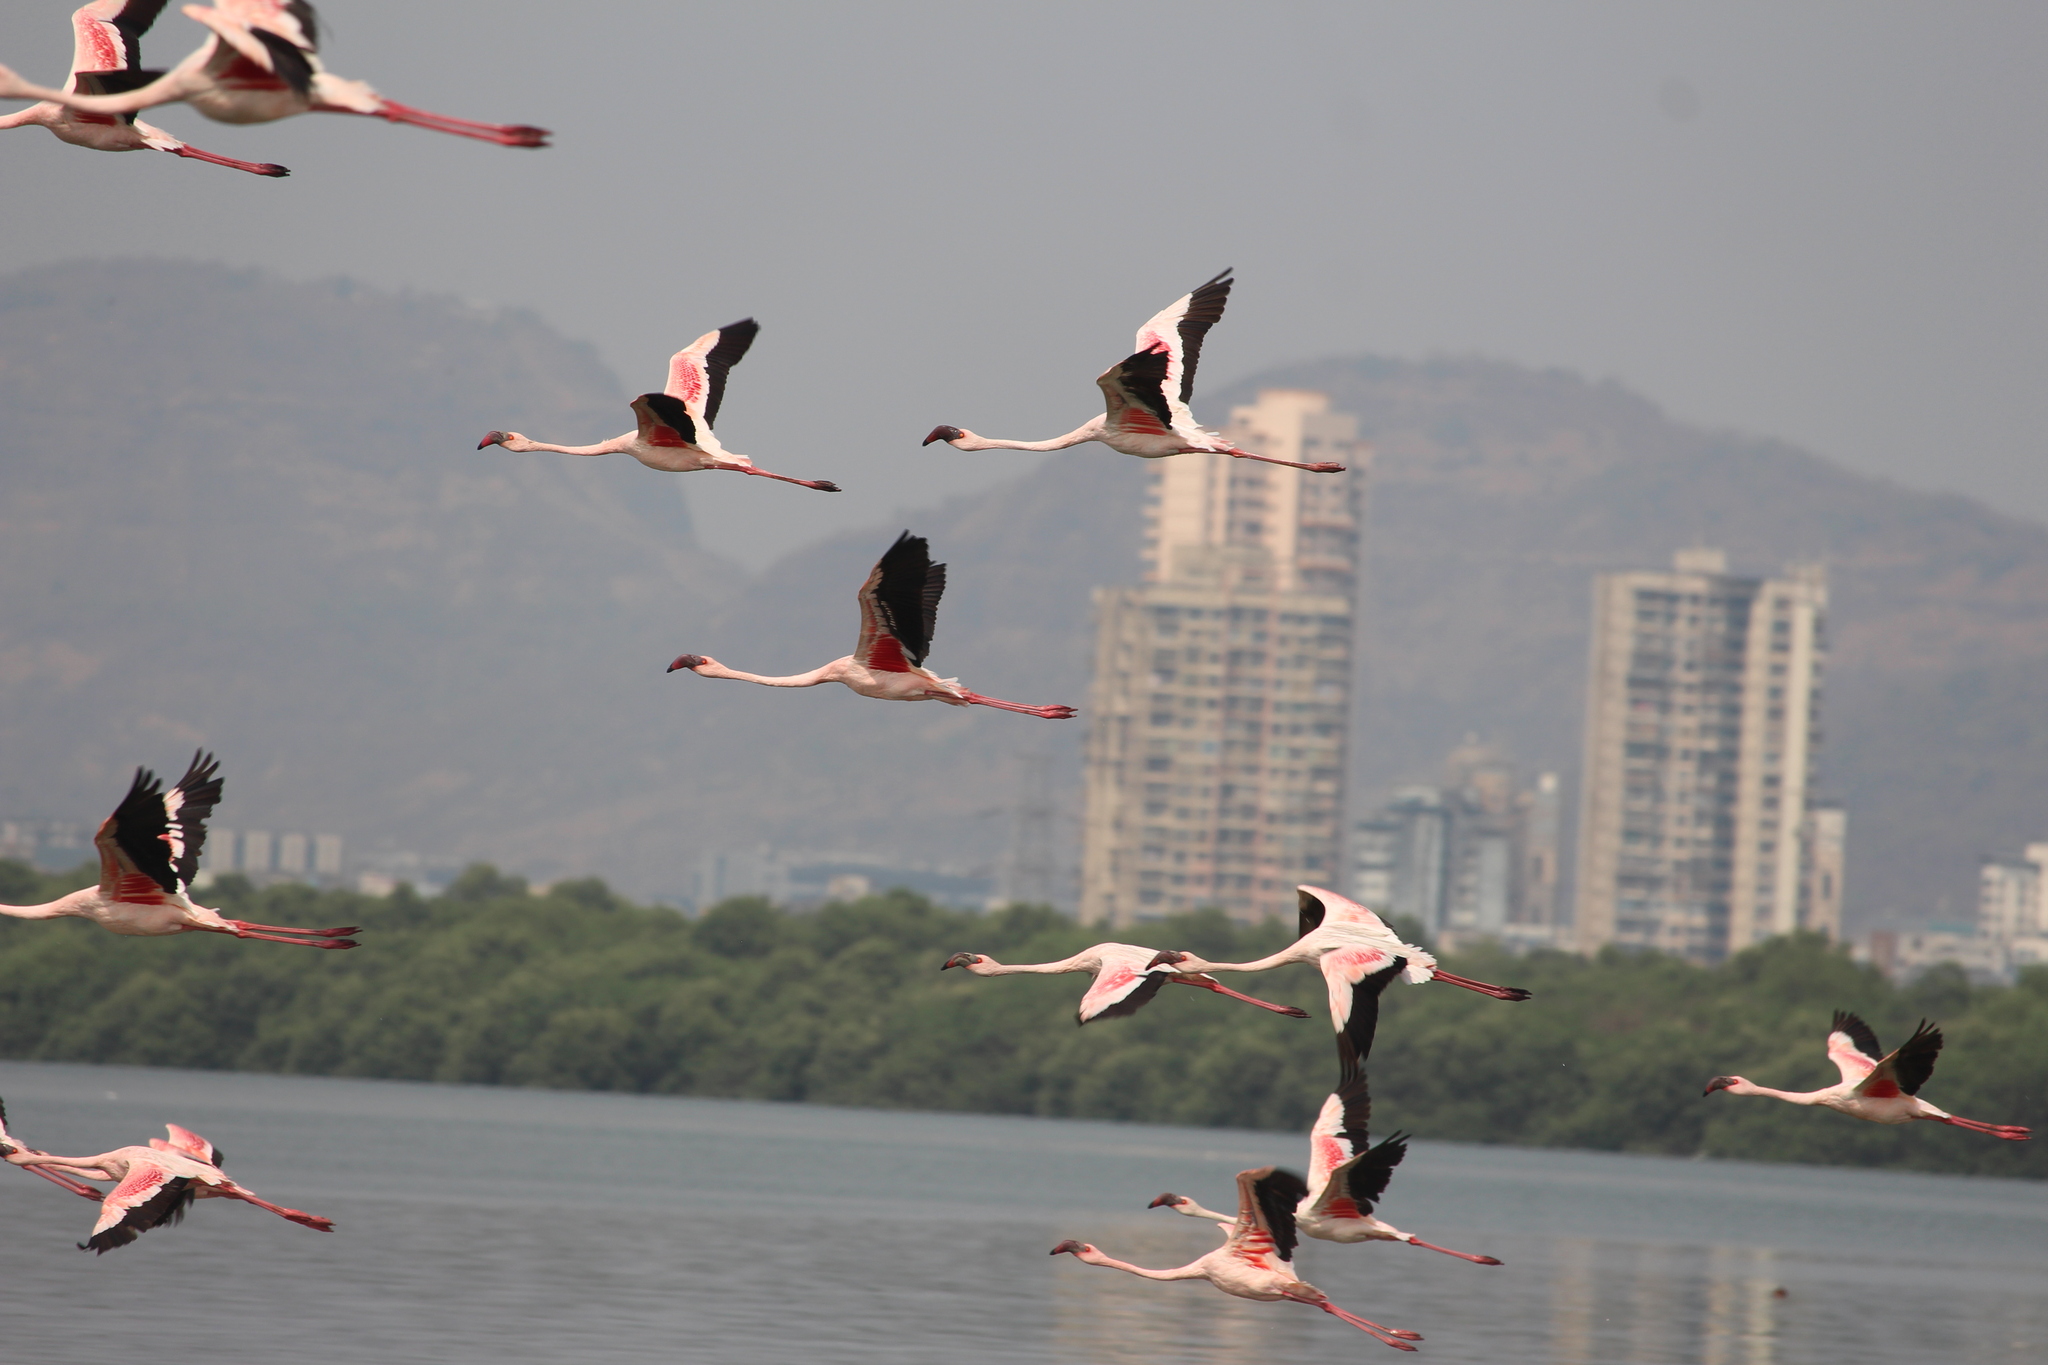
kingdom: Animalia
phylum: Chordata
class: Aves
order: Phoenicopteriformes
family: Phoenicopteridae
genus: Phoeniconaias
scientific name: Phoeniconaias minor
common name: Lesser flamingo
